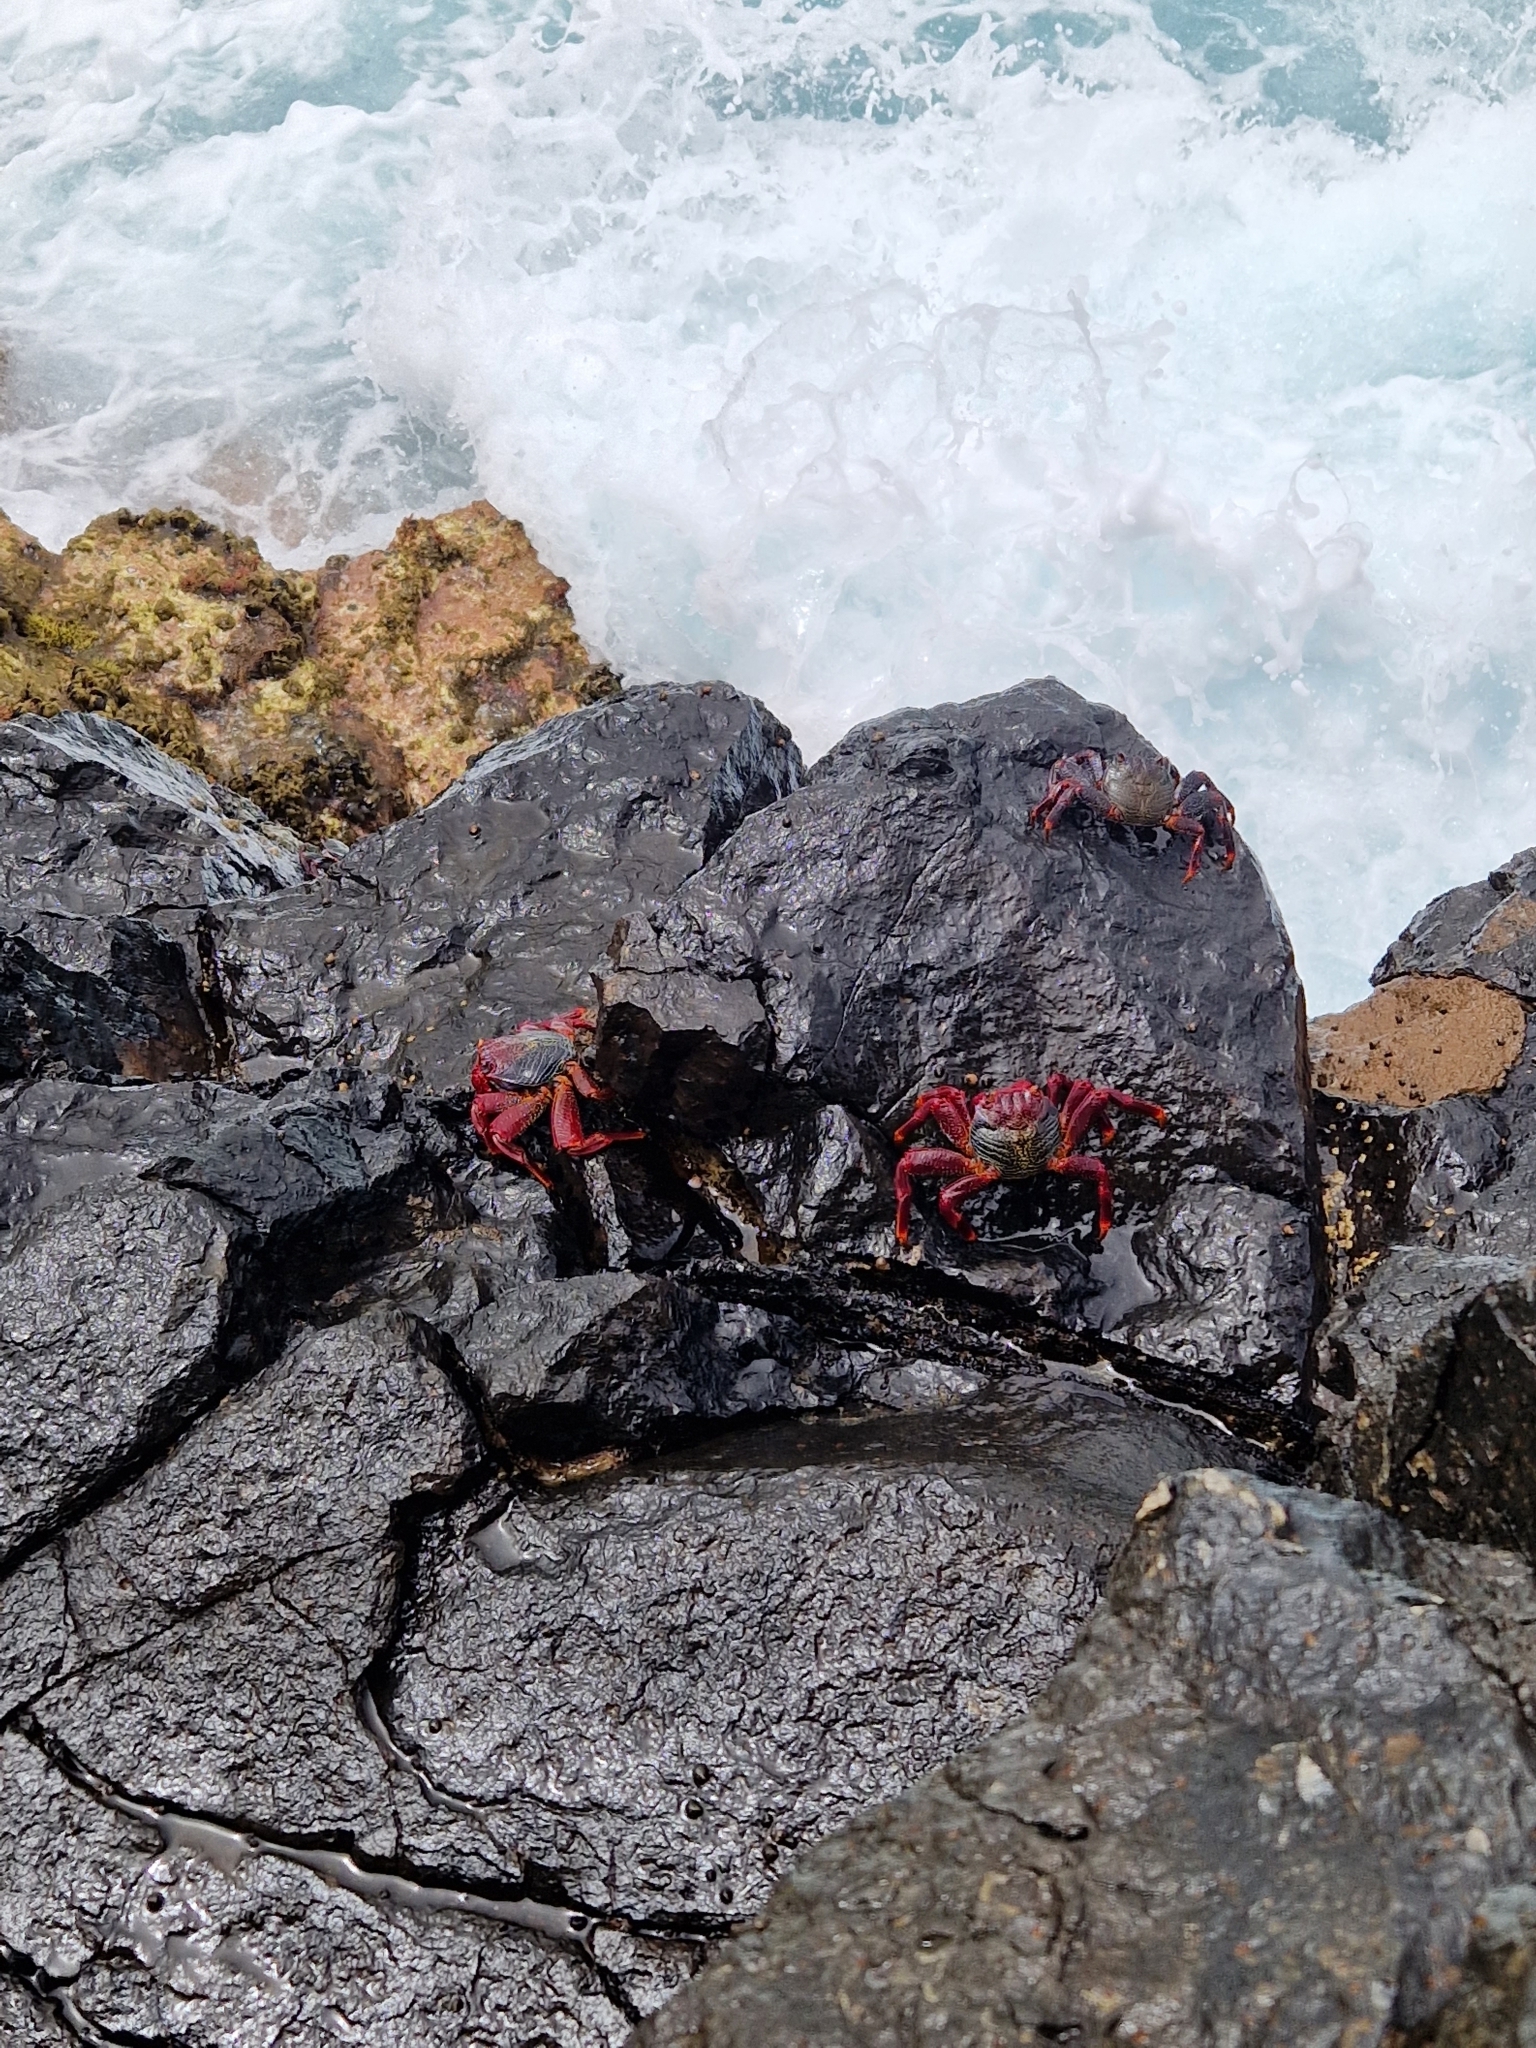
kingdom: Animalia
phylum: Arthropoda
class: Malacostraca
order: Decapoda
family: Grapsidae
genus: Grapsus
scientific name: Grapsus adscensionis
